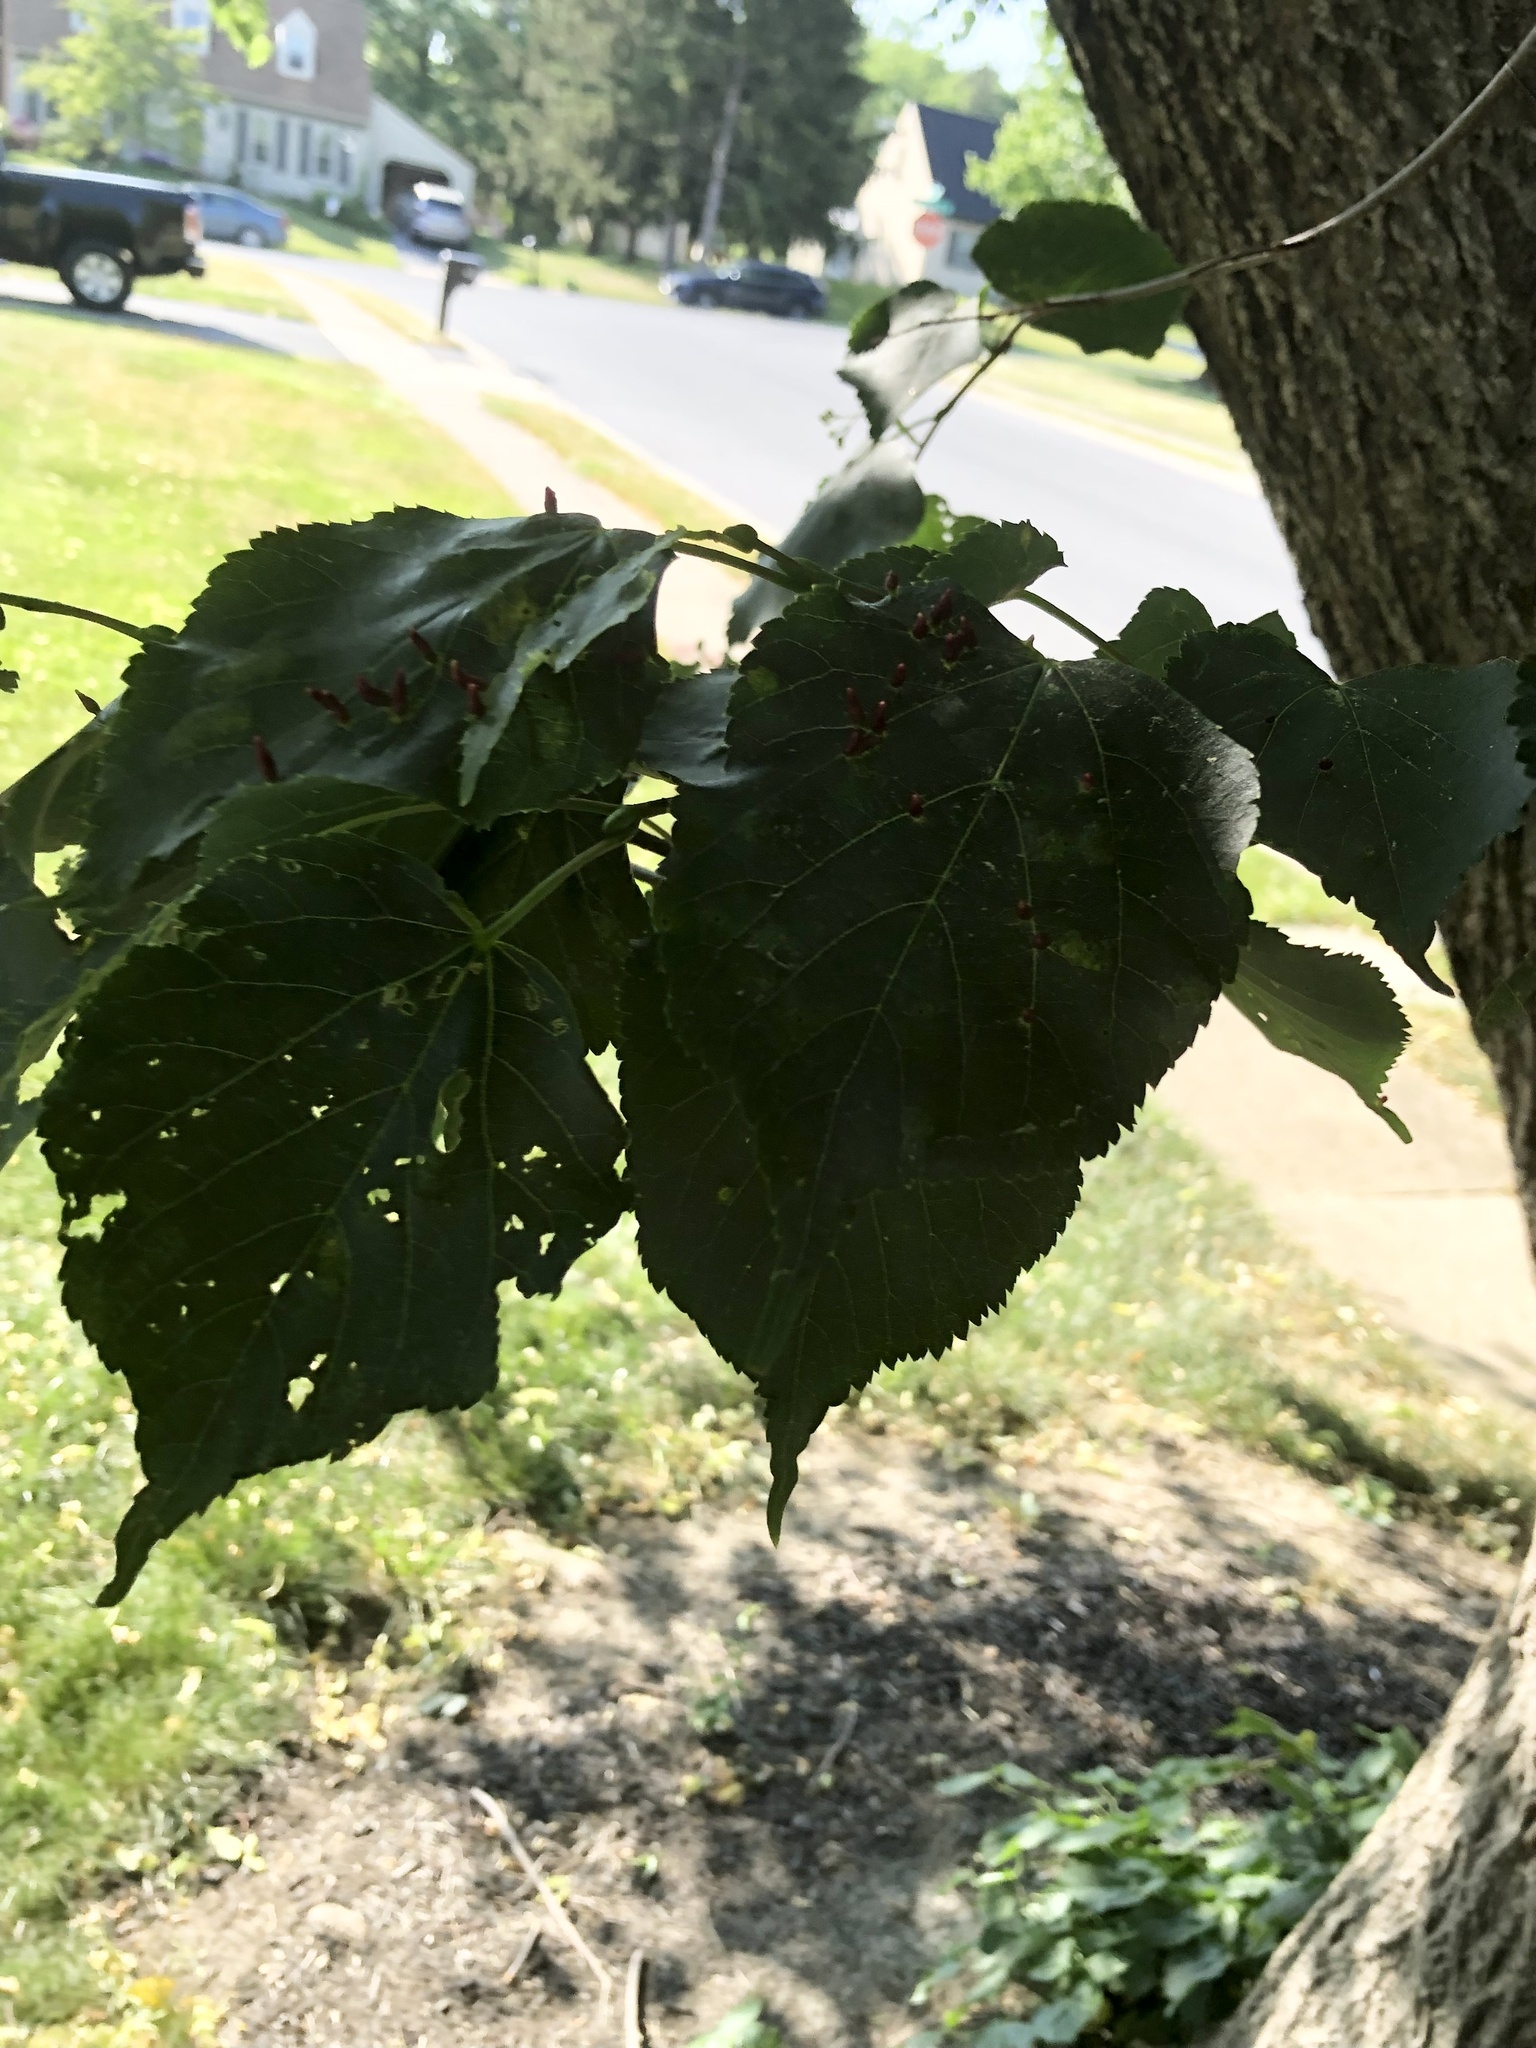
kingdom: Animalia
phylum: Arthropoda
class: Arachnida
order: Trombidiformes
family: Eriophyidae
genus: Eriophyes
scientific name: Eriophyes tiliae
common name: Red nail gall mite
